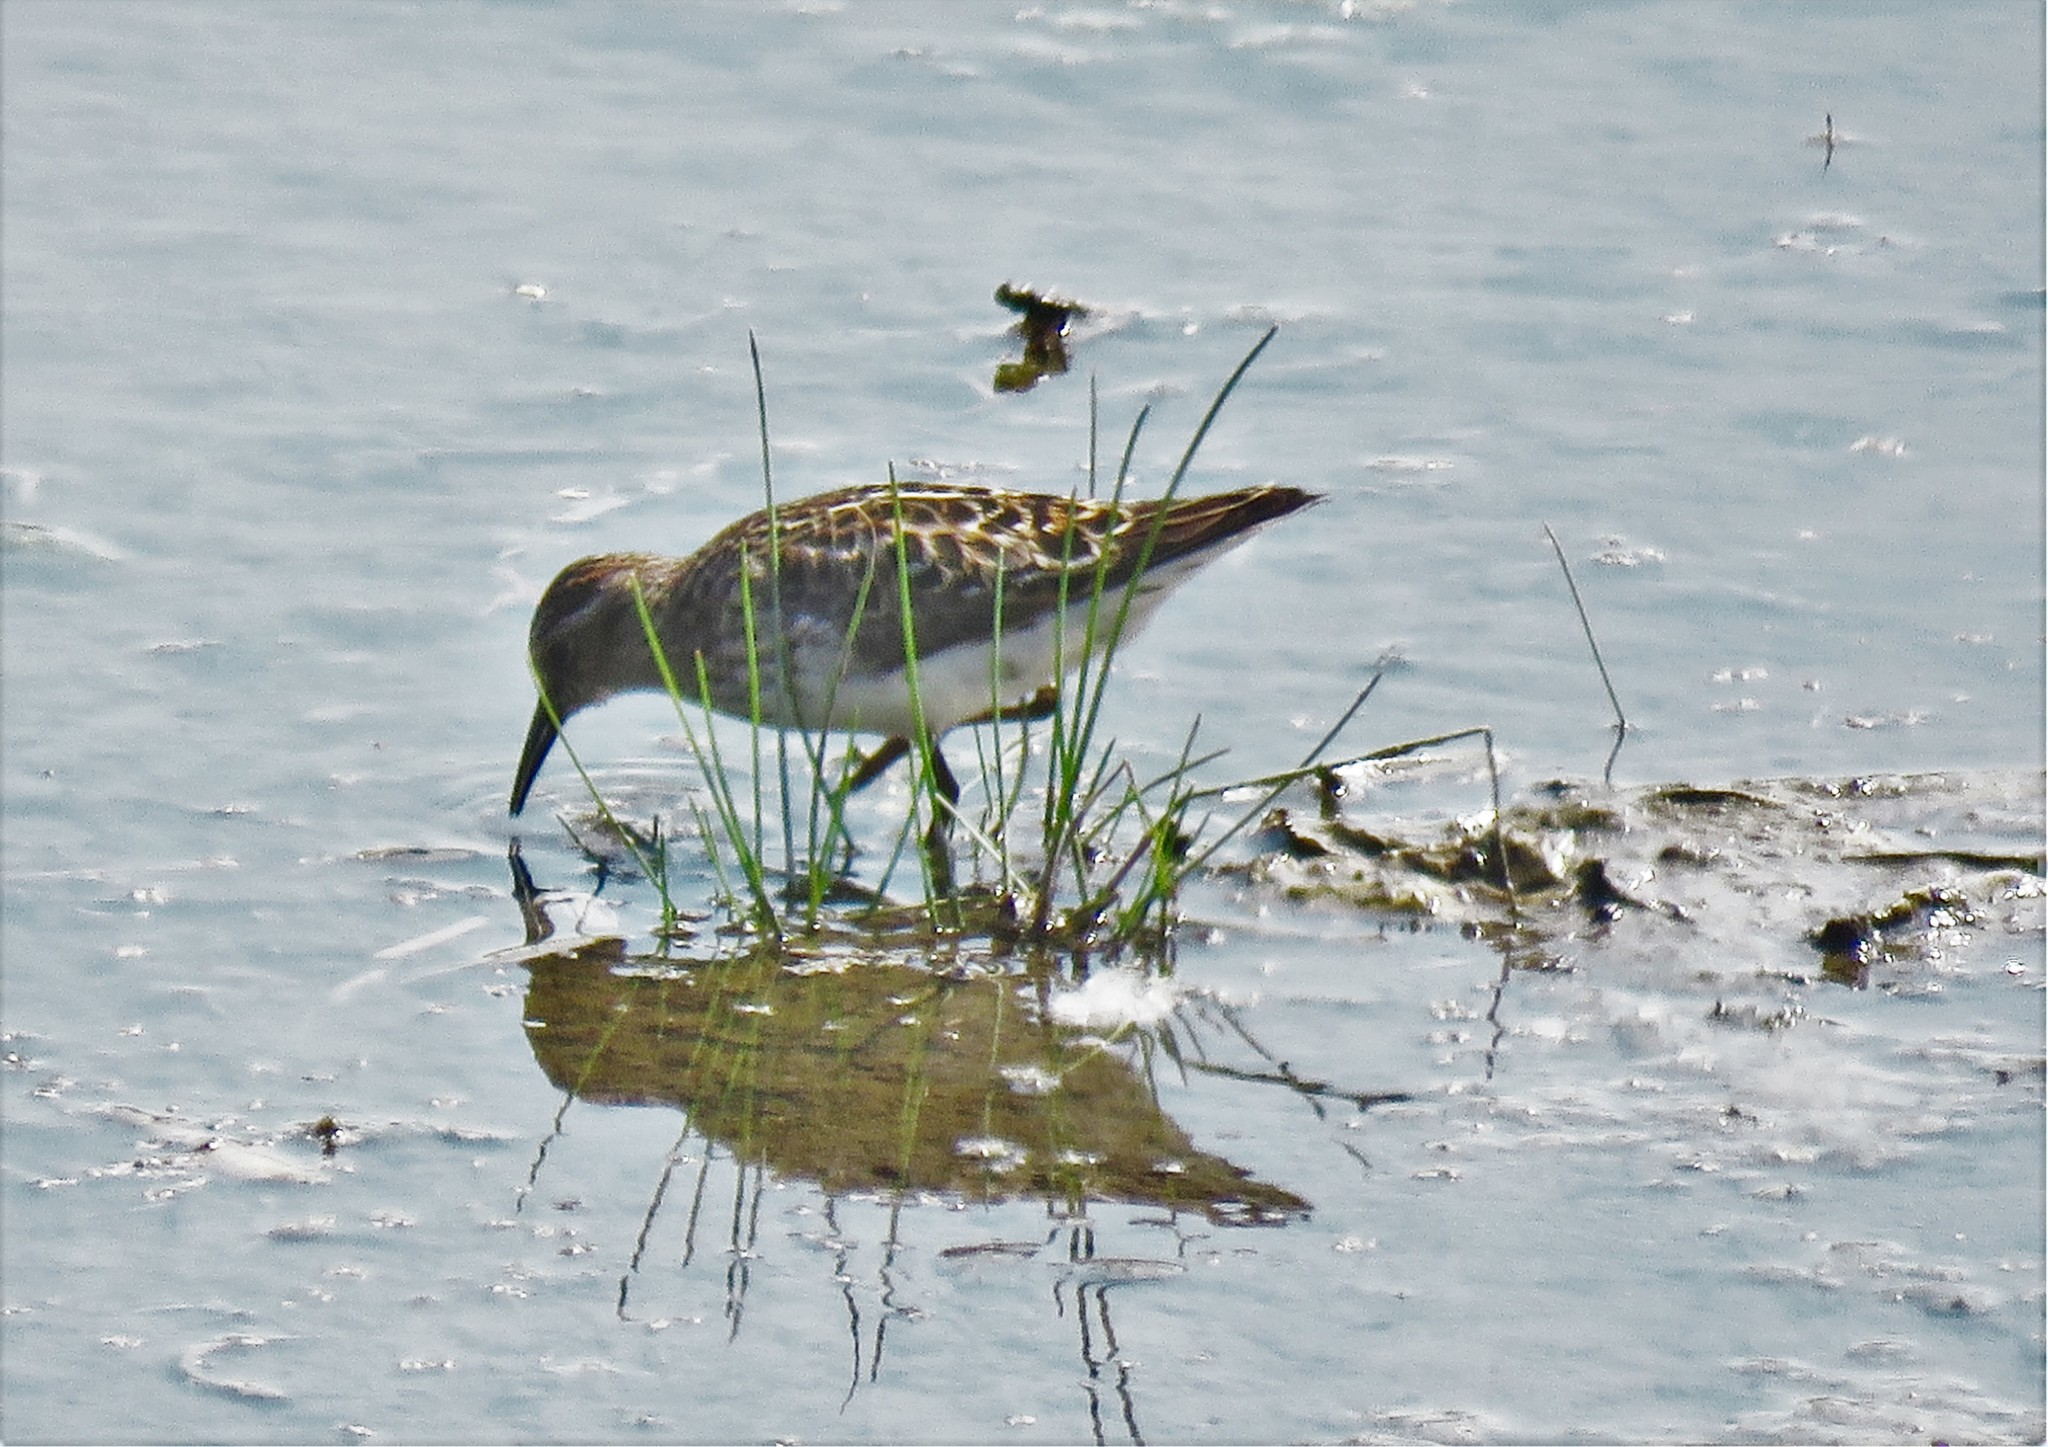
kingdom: Animalia
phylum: Chordata
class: Aves
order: Charadriiformes
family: Scolopacidae
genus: Calidris
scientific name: Calidris minutilla
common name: Least sandpiper
